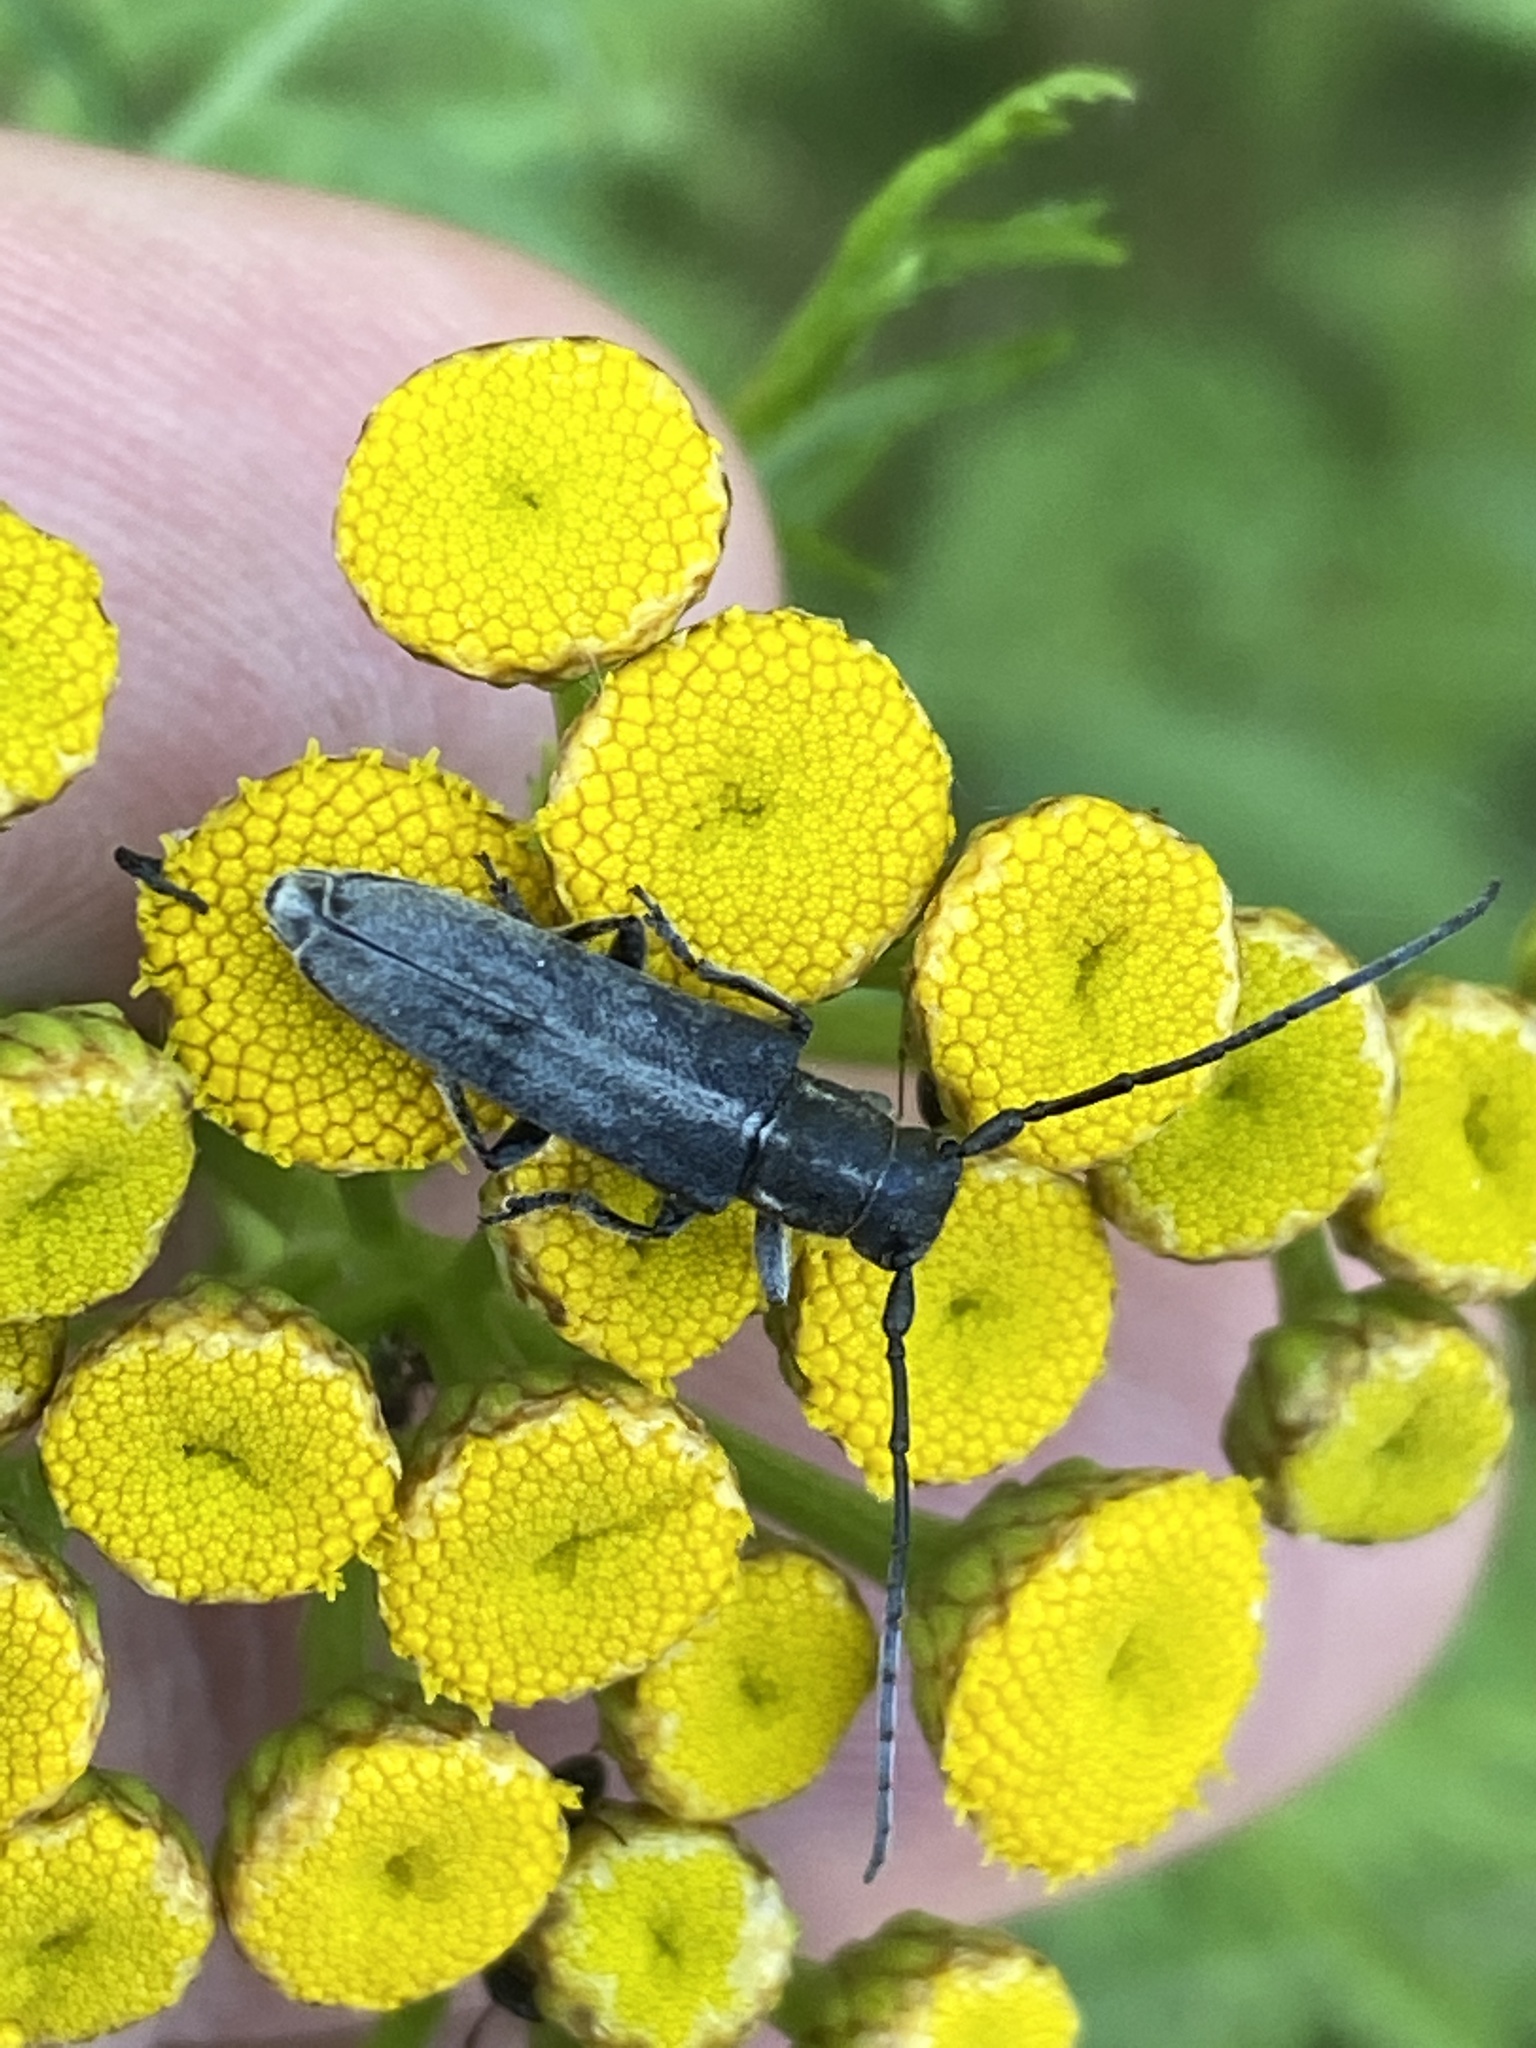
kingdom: Animalia
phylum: Arthropoda
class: Insecta
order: Coleoptera
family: Cerambycidae
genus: Phytoecia
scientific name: Phytoecia nigricornis
